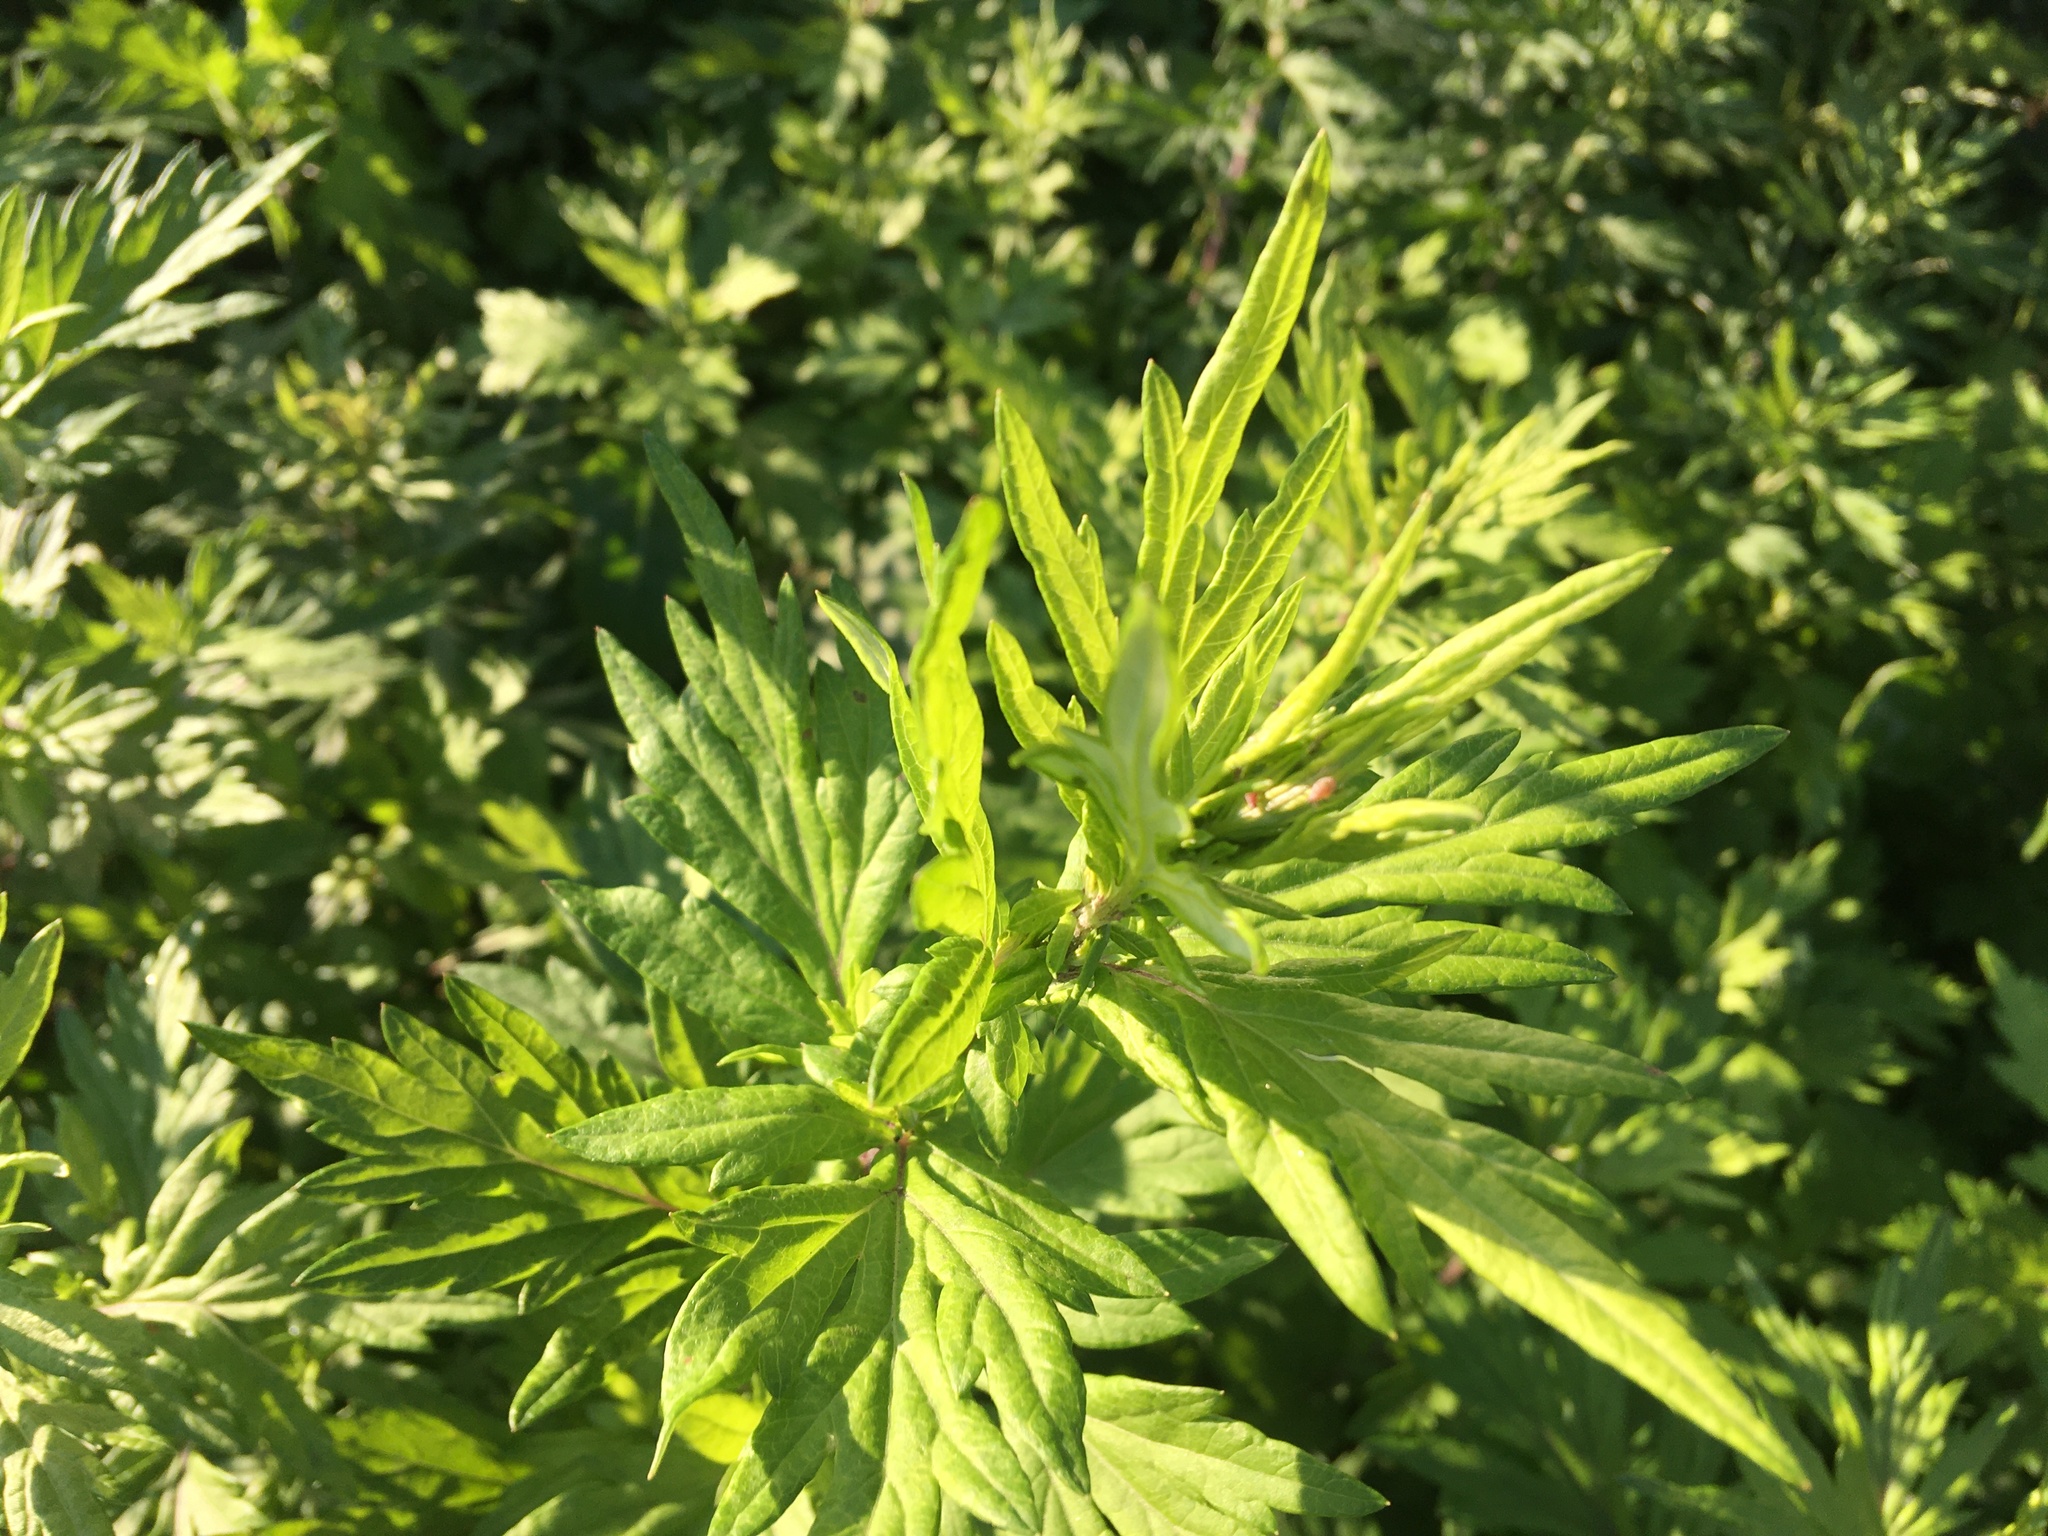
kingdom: Plantae
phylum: Tracheophyta
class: Magnoliopsida
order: Asterales
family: Asteraceae
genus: Artemisia
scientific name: Artemisia vulgaris
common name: Mugwort
